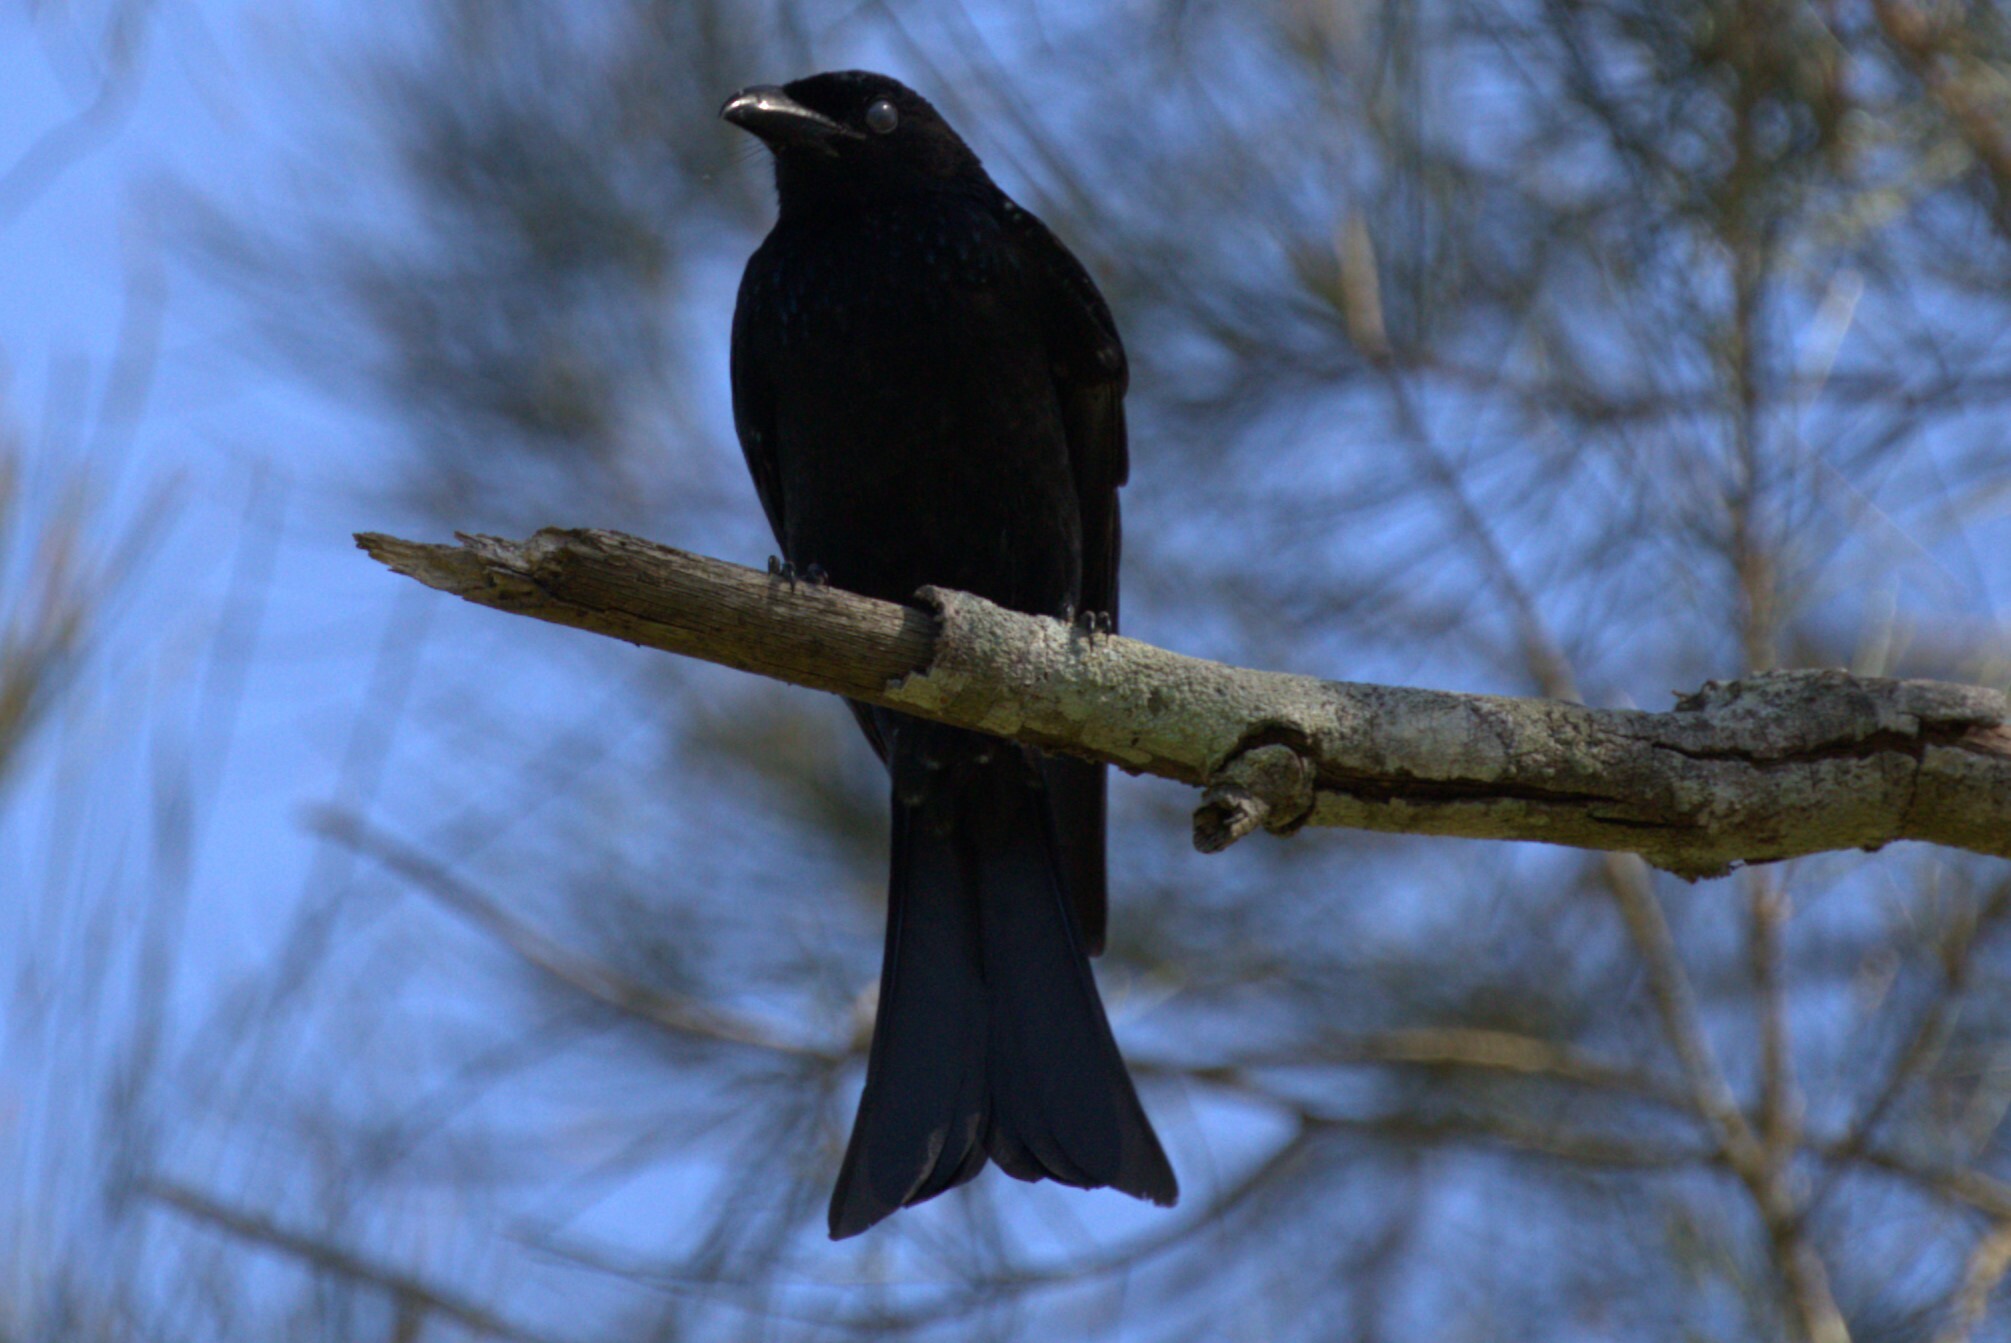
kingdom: Animalia
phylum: Chordata
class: Aves
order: Passeriformes
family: Dicruridae
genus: Dicrurus
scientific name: Dicrurus bracteatus
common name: Spangled drongo
